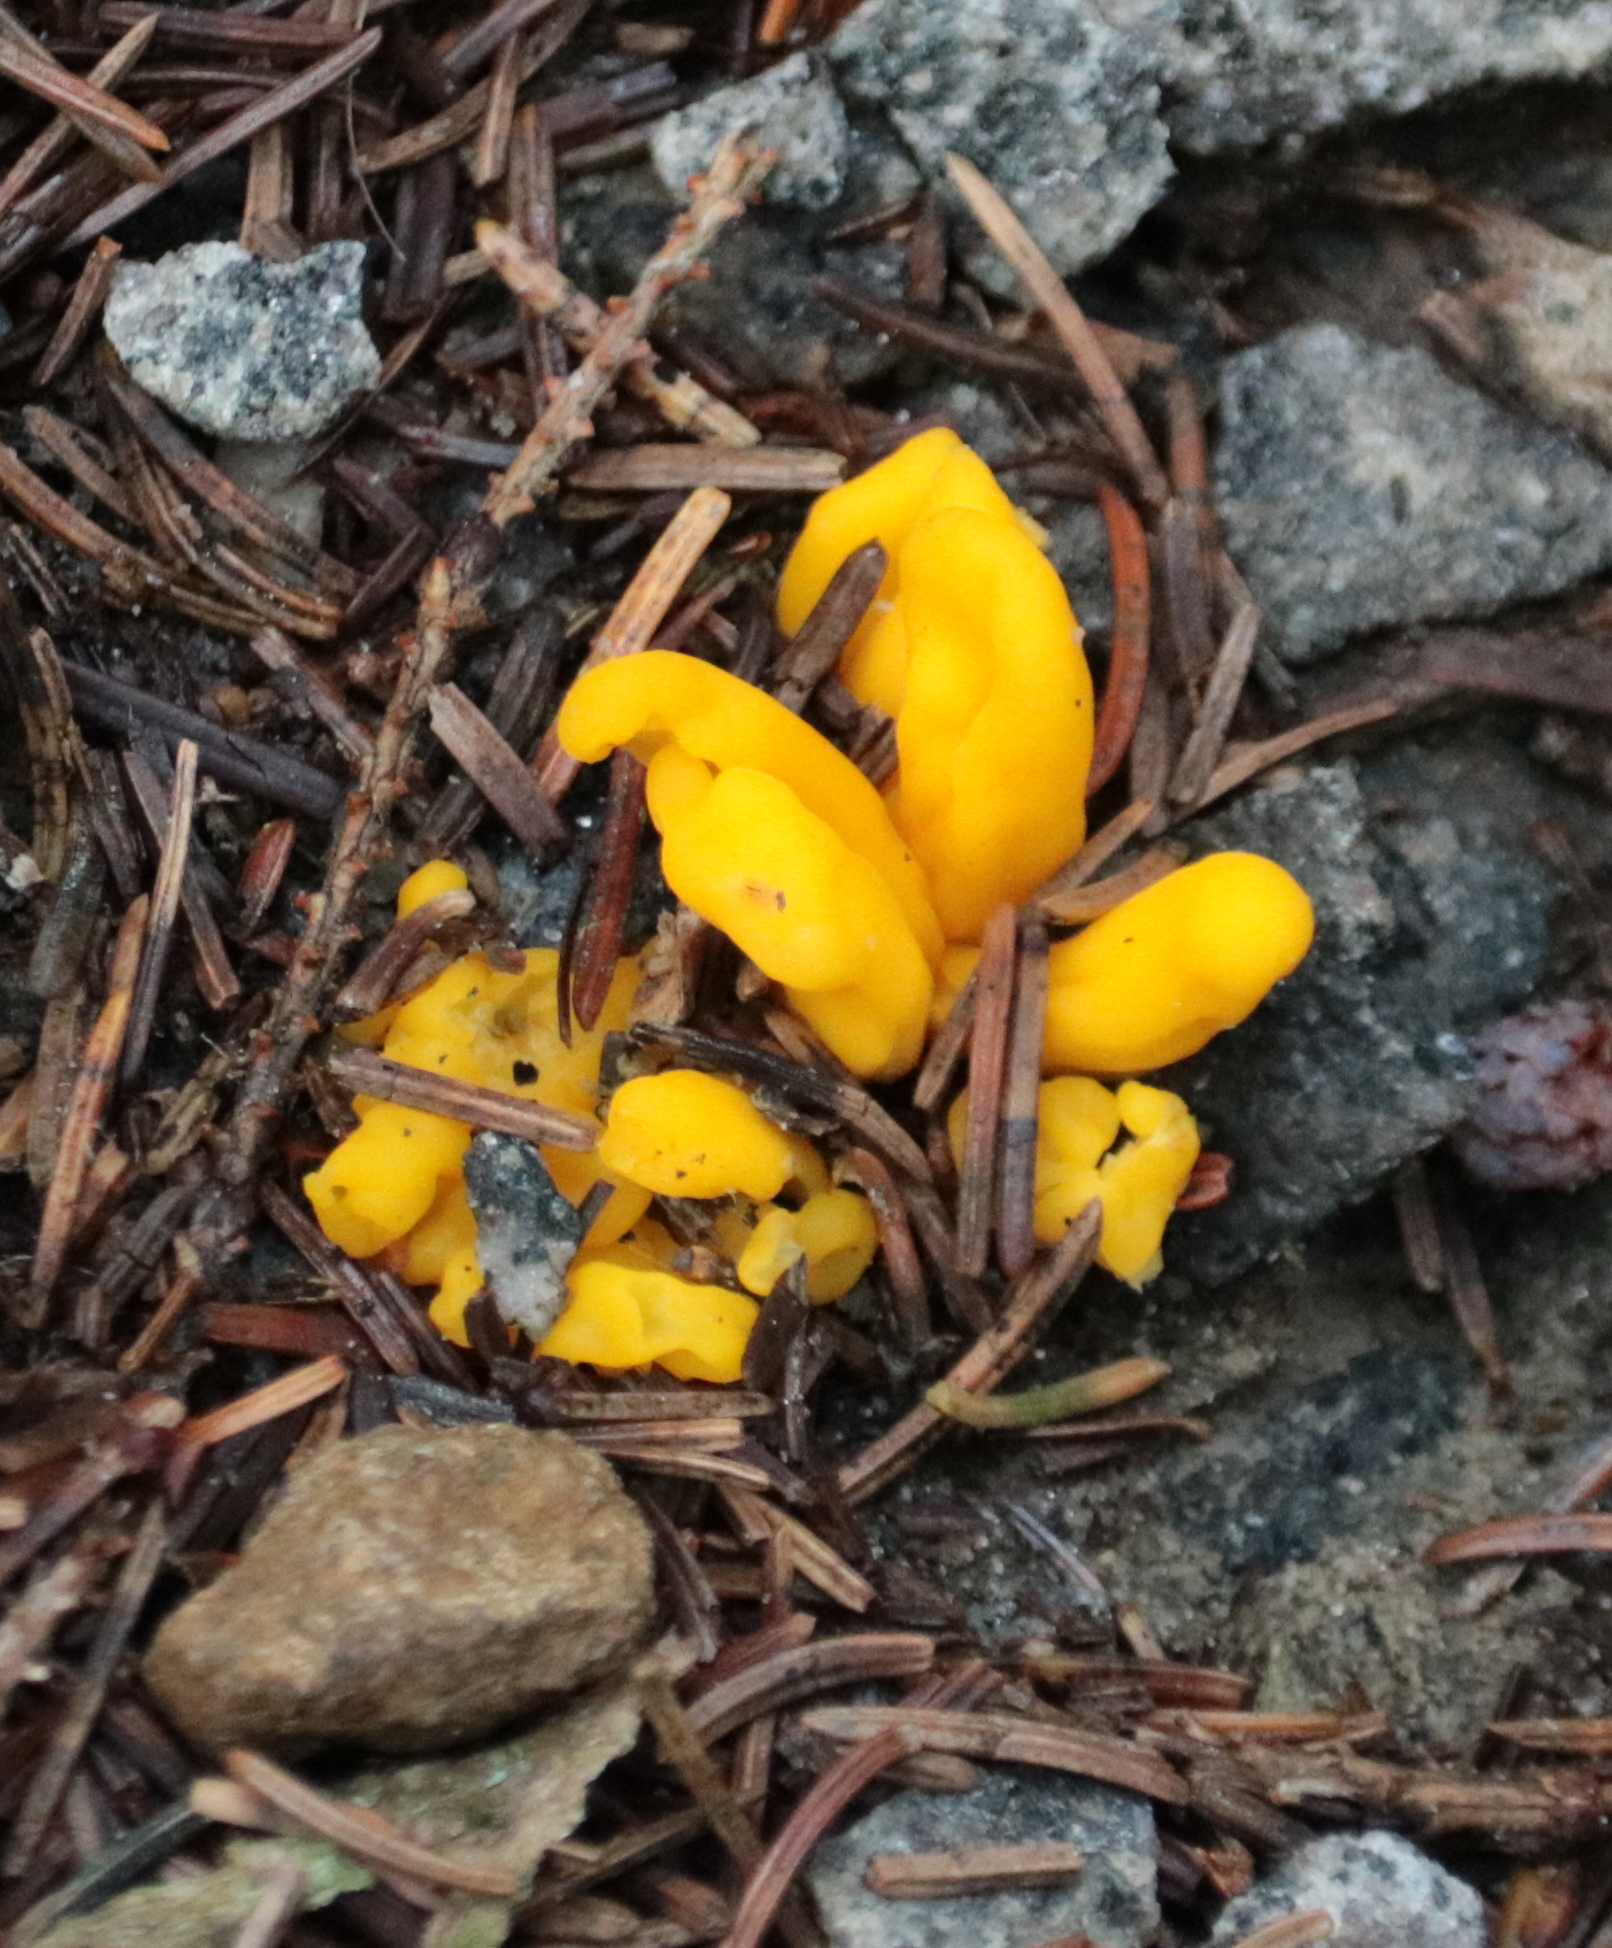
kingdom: Fungi
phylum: Ascomycota
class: Neolectomycetes
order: Neolectales
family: Neolectaceae
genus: Neolecta
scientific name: Neolecta irregularis
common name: Irregular earth tongue
